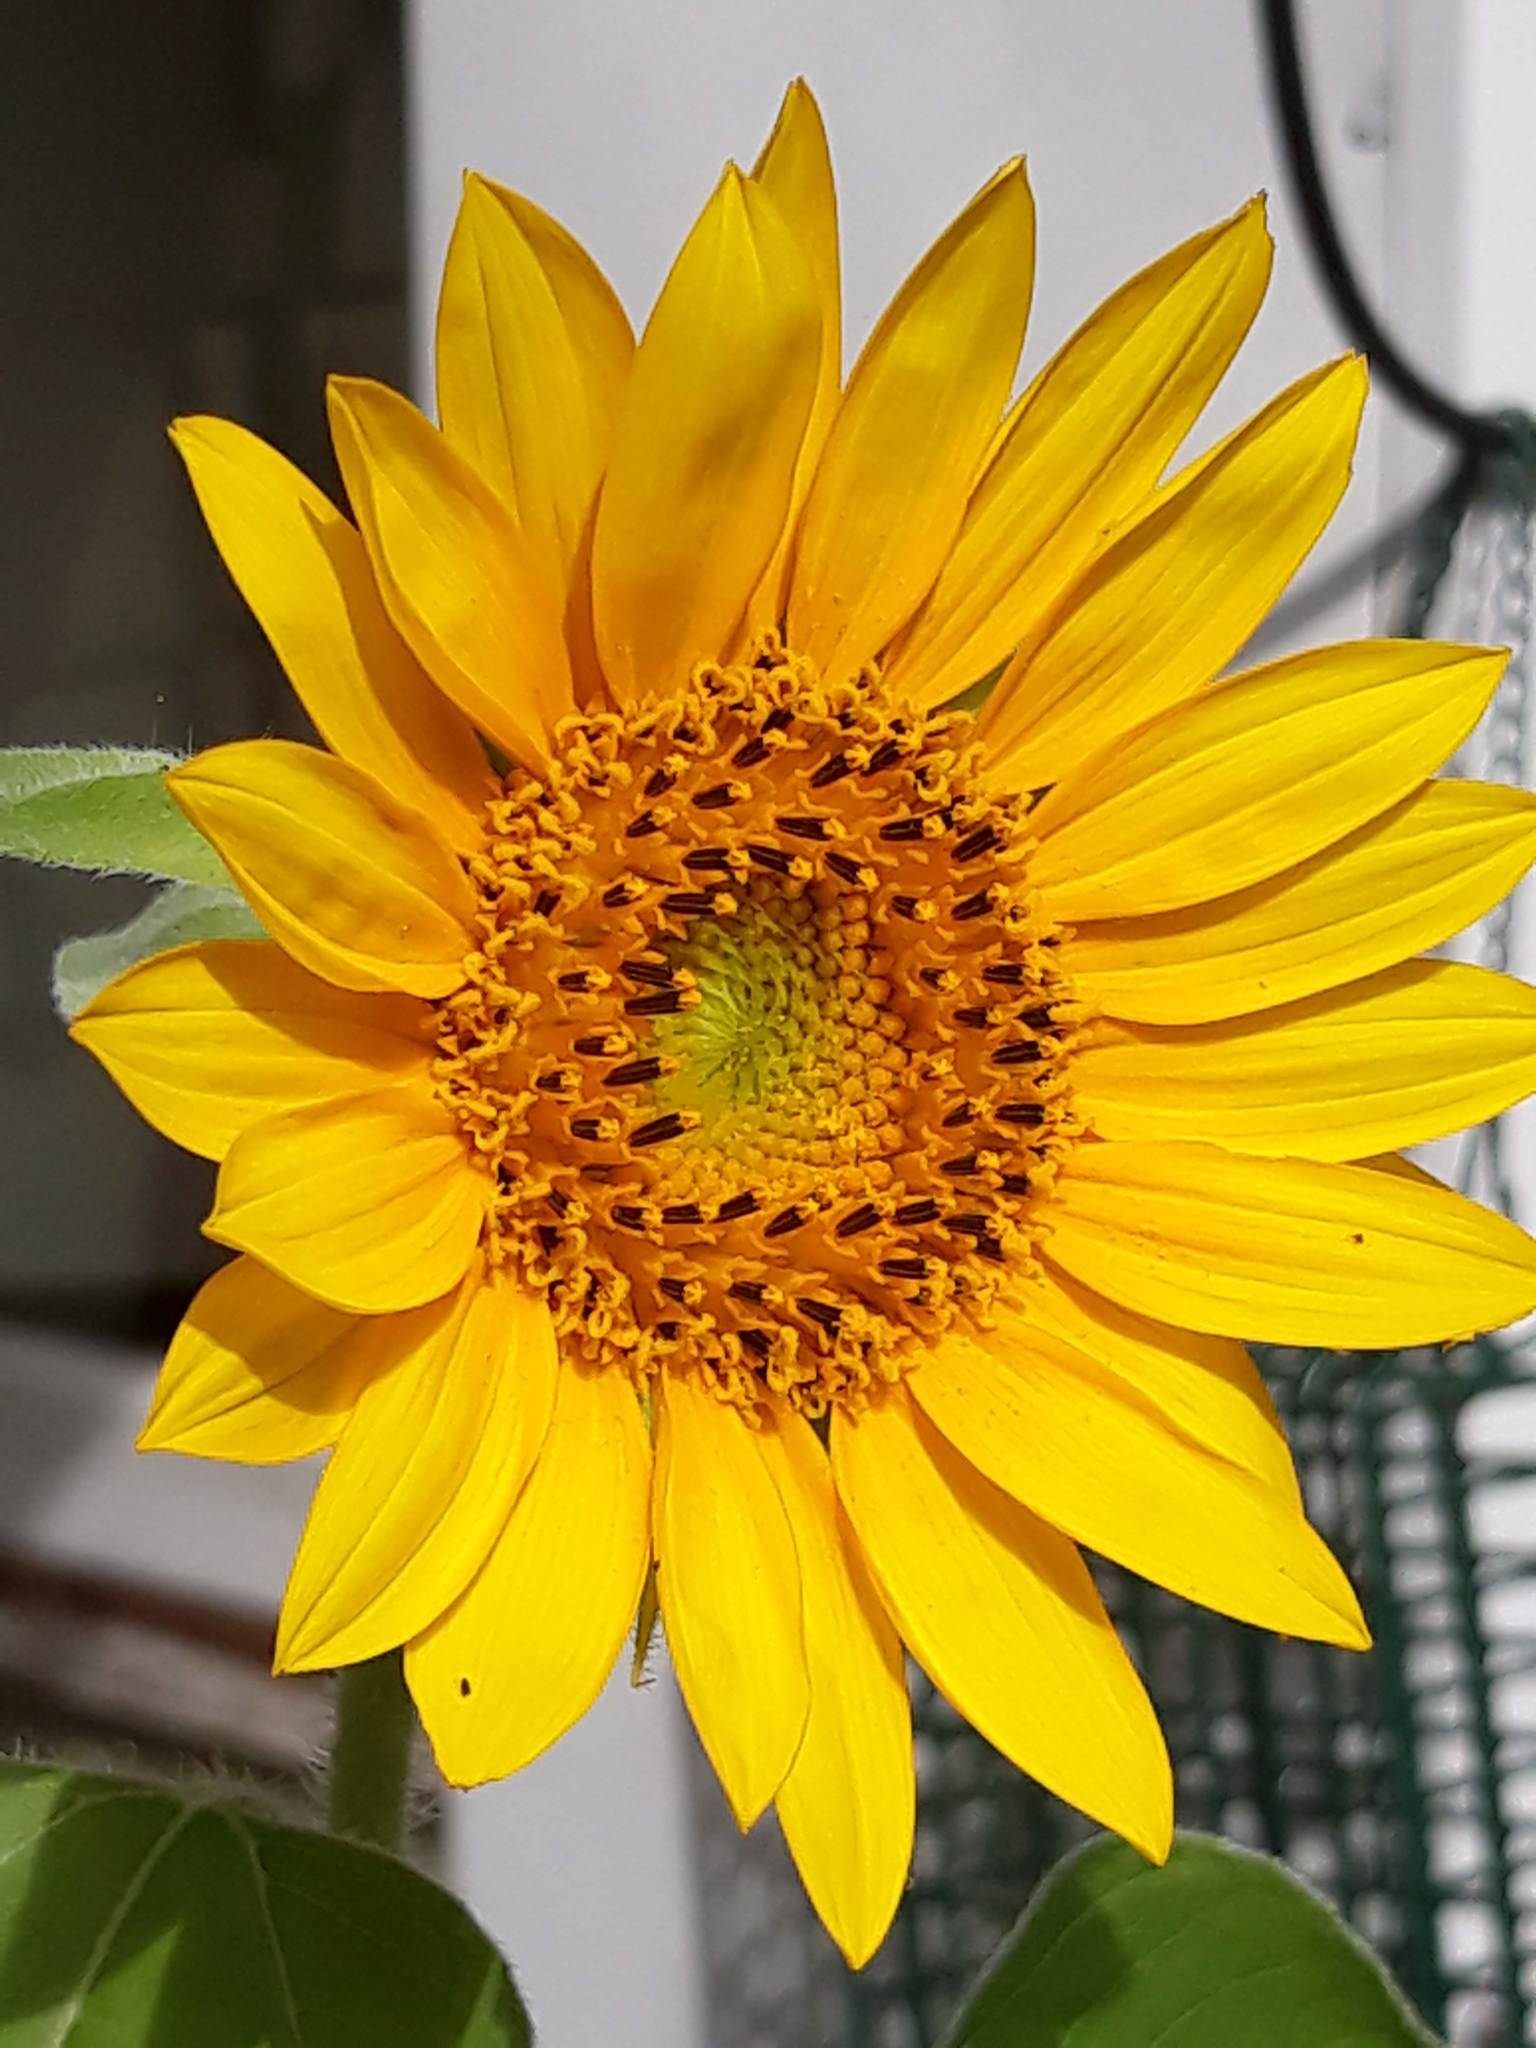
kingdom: Plantae
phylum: Tracheophyta
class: Magnoliopsida
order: Asterales
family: Asteraceae
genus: Helianthus
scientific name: Helianthus annuus
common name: Sunflower
